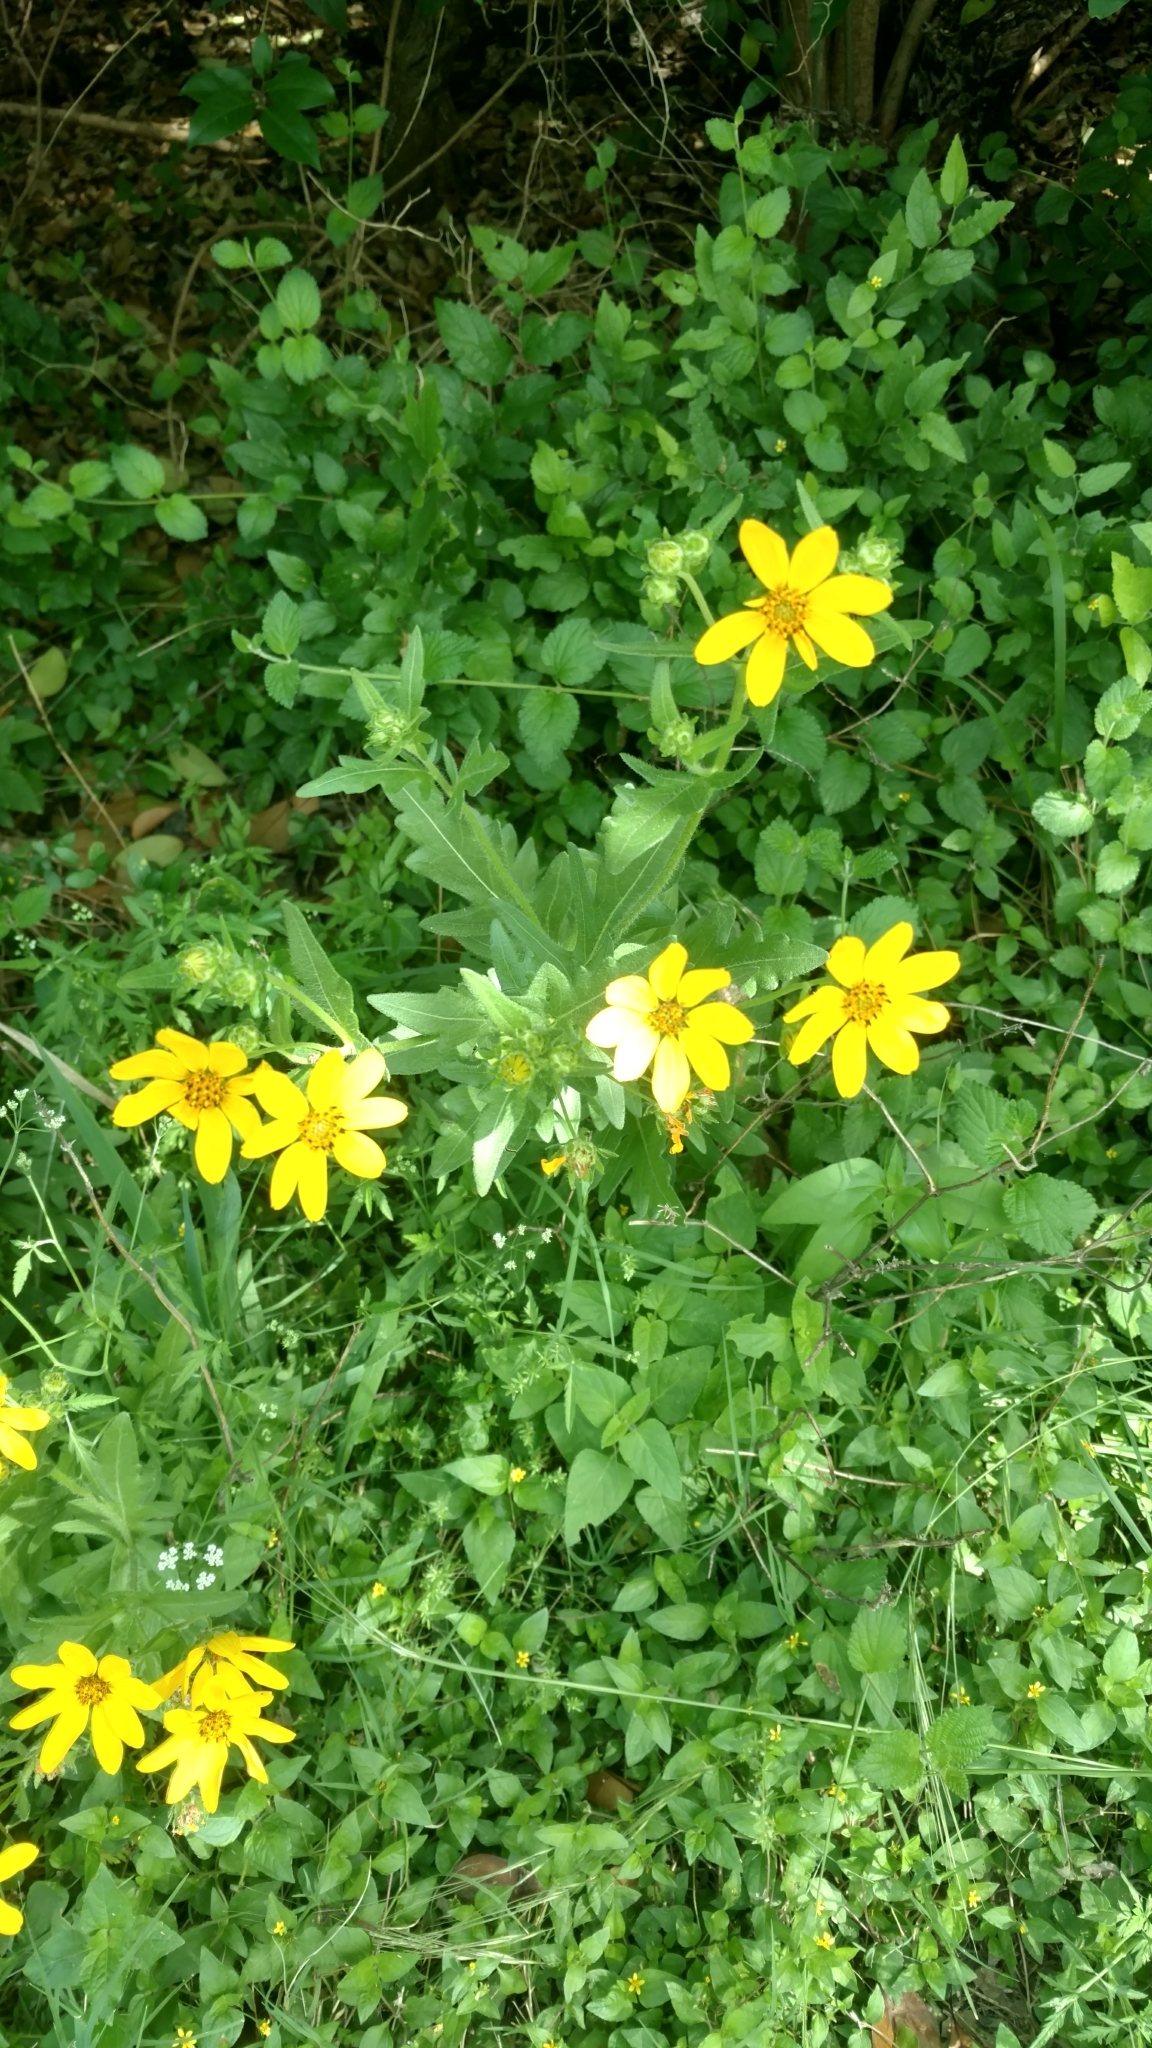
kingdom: Plantae
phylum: Tracheophyta
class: Magnoliopsida
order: Asterales
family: Asteraceae
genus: Engelmannia
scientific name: Engelmannia peristenia
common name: Engelmann's daisy
